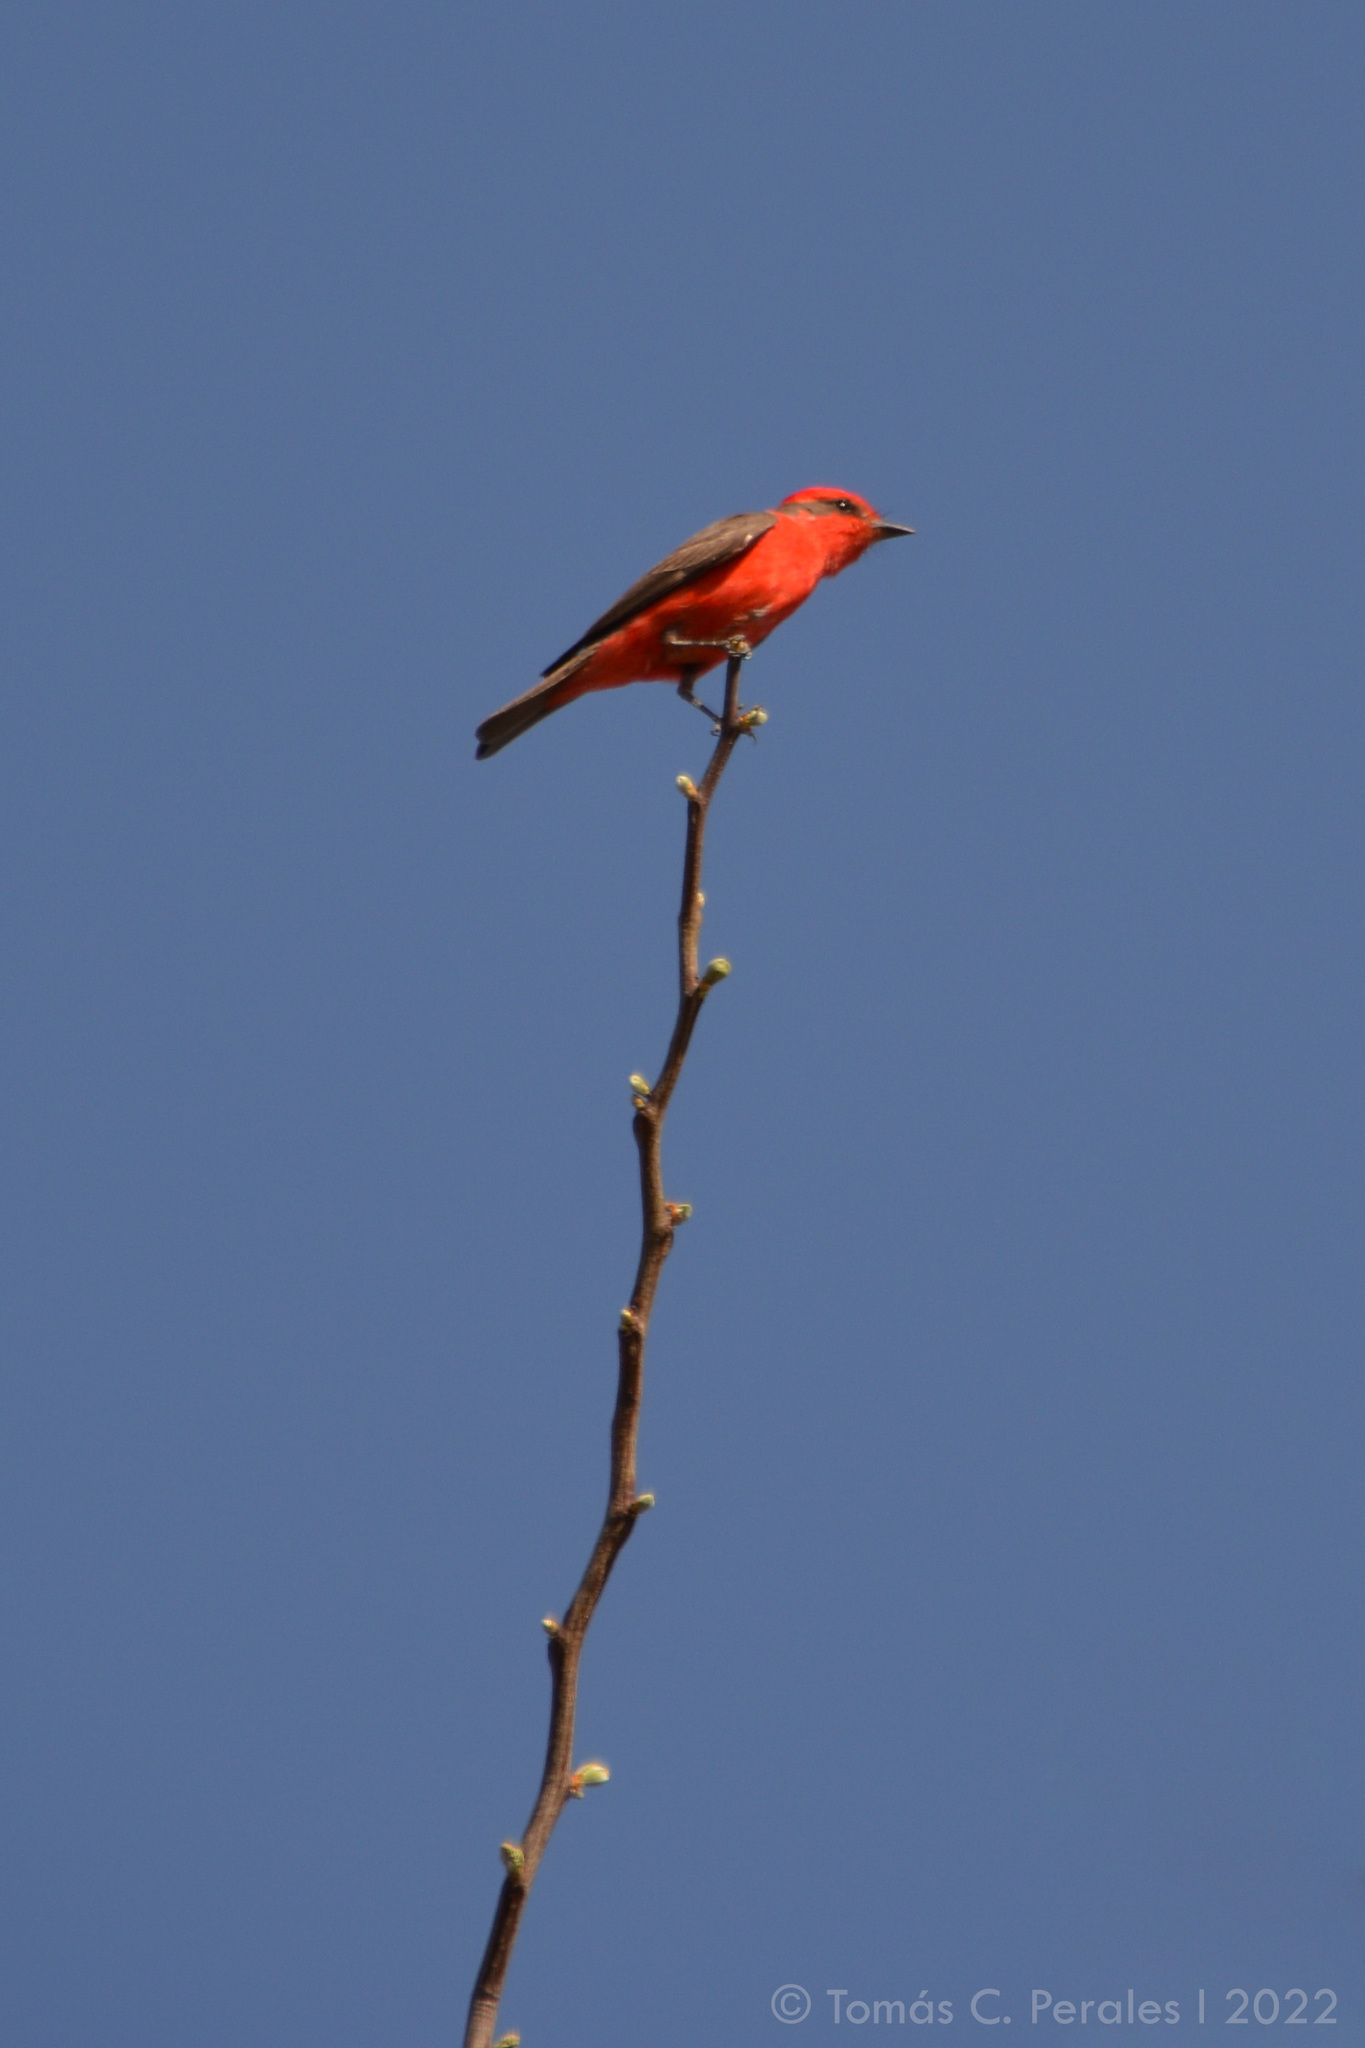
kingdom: Animalia
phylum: Chordata
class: Aves
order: Passeriformes
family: Tyrannidae
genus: Pyrocephalus
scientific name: Pyrocephalus rubinus
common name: Vermilion flycatcher
